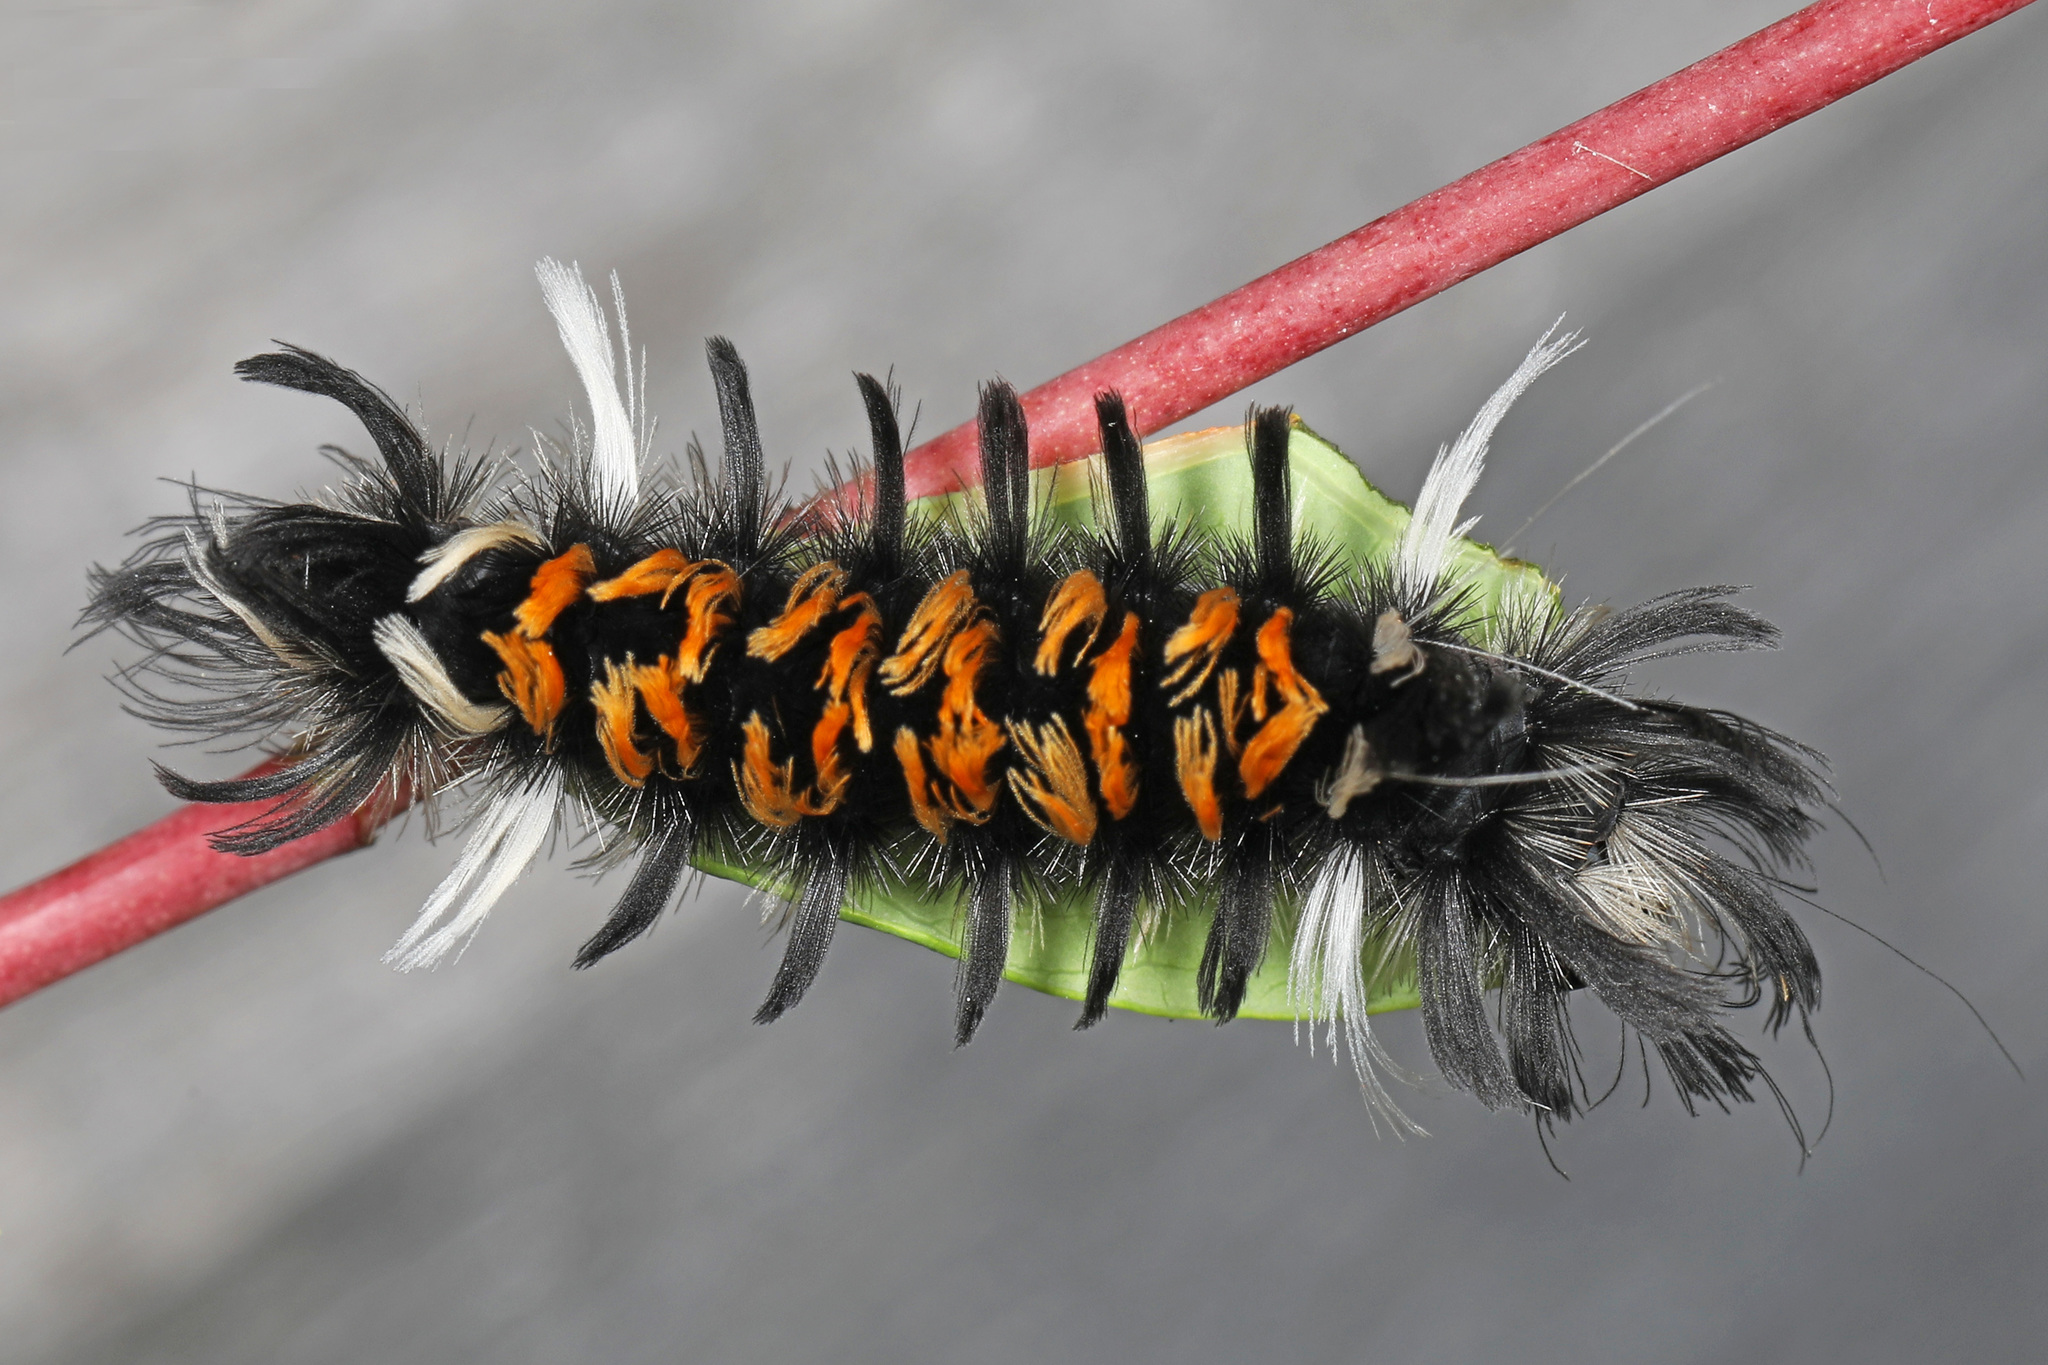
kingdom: Animalia
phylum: Arthropoda
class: Insecta
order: Lepidoptera
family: Erebidae
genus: Euchaetes
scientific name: Euchaetes egle
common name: Milkweed tussock moth
